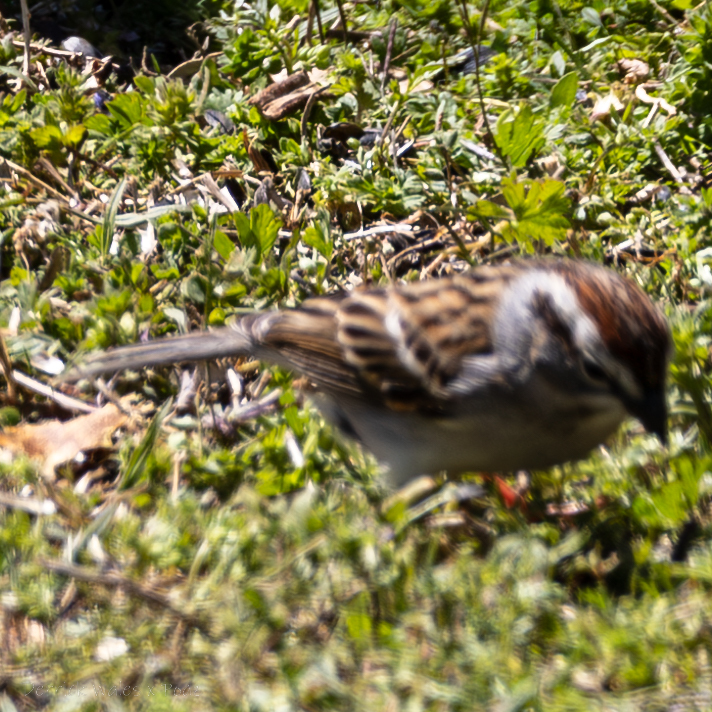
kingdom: Animalia
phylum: Chordata
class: Aves
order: Passeriformes
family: Passerellidae
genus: Spizella
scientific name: Spizella passerina
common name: Chipping sparrow
